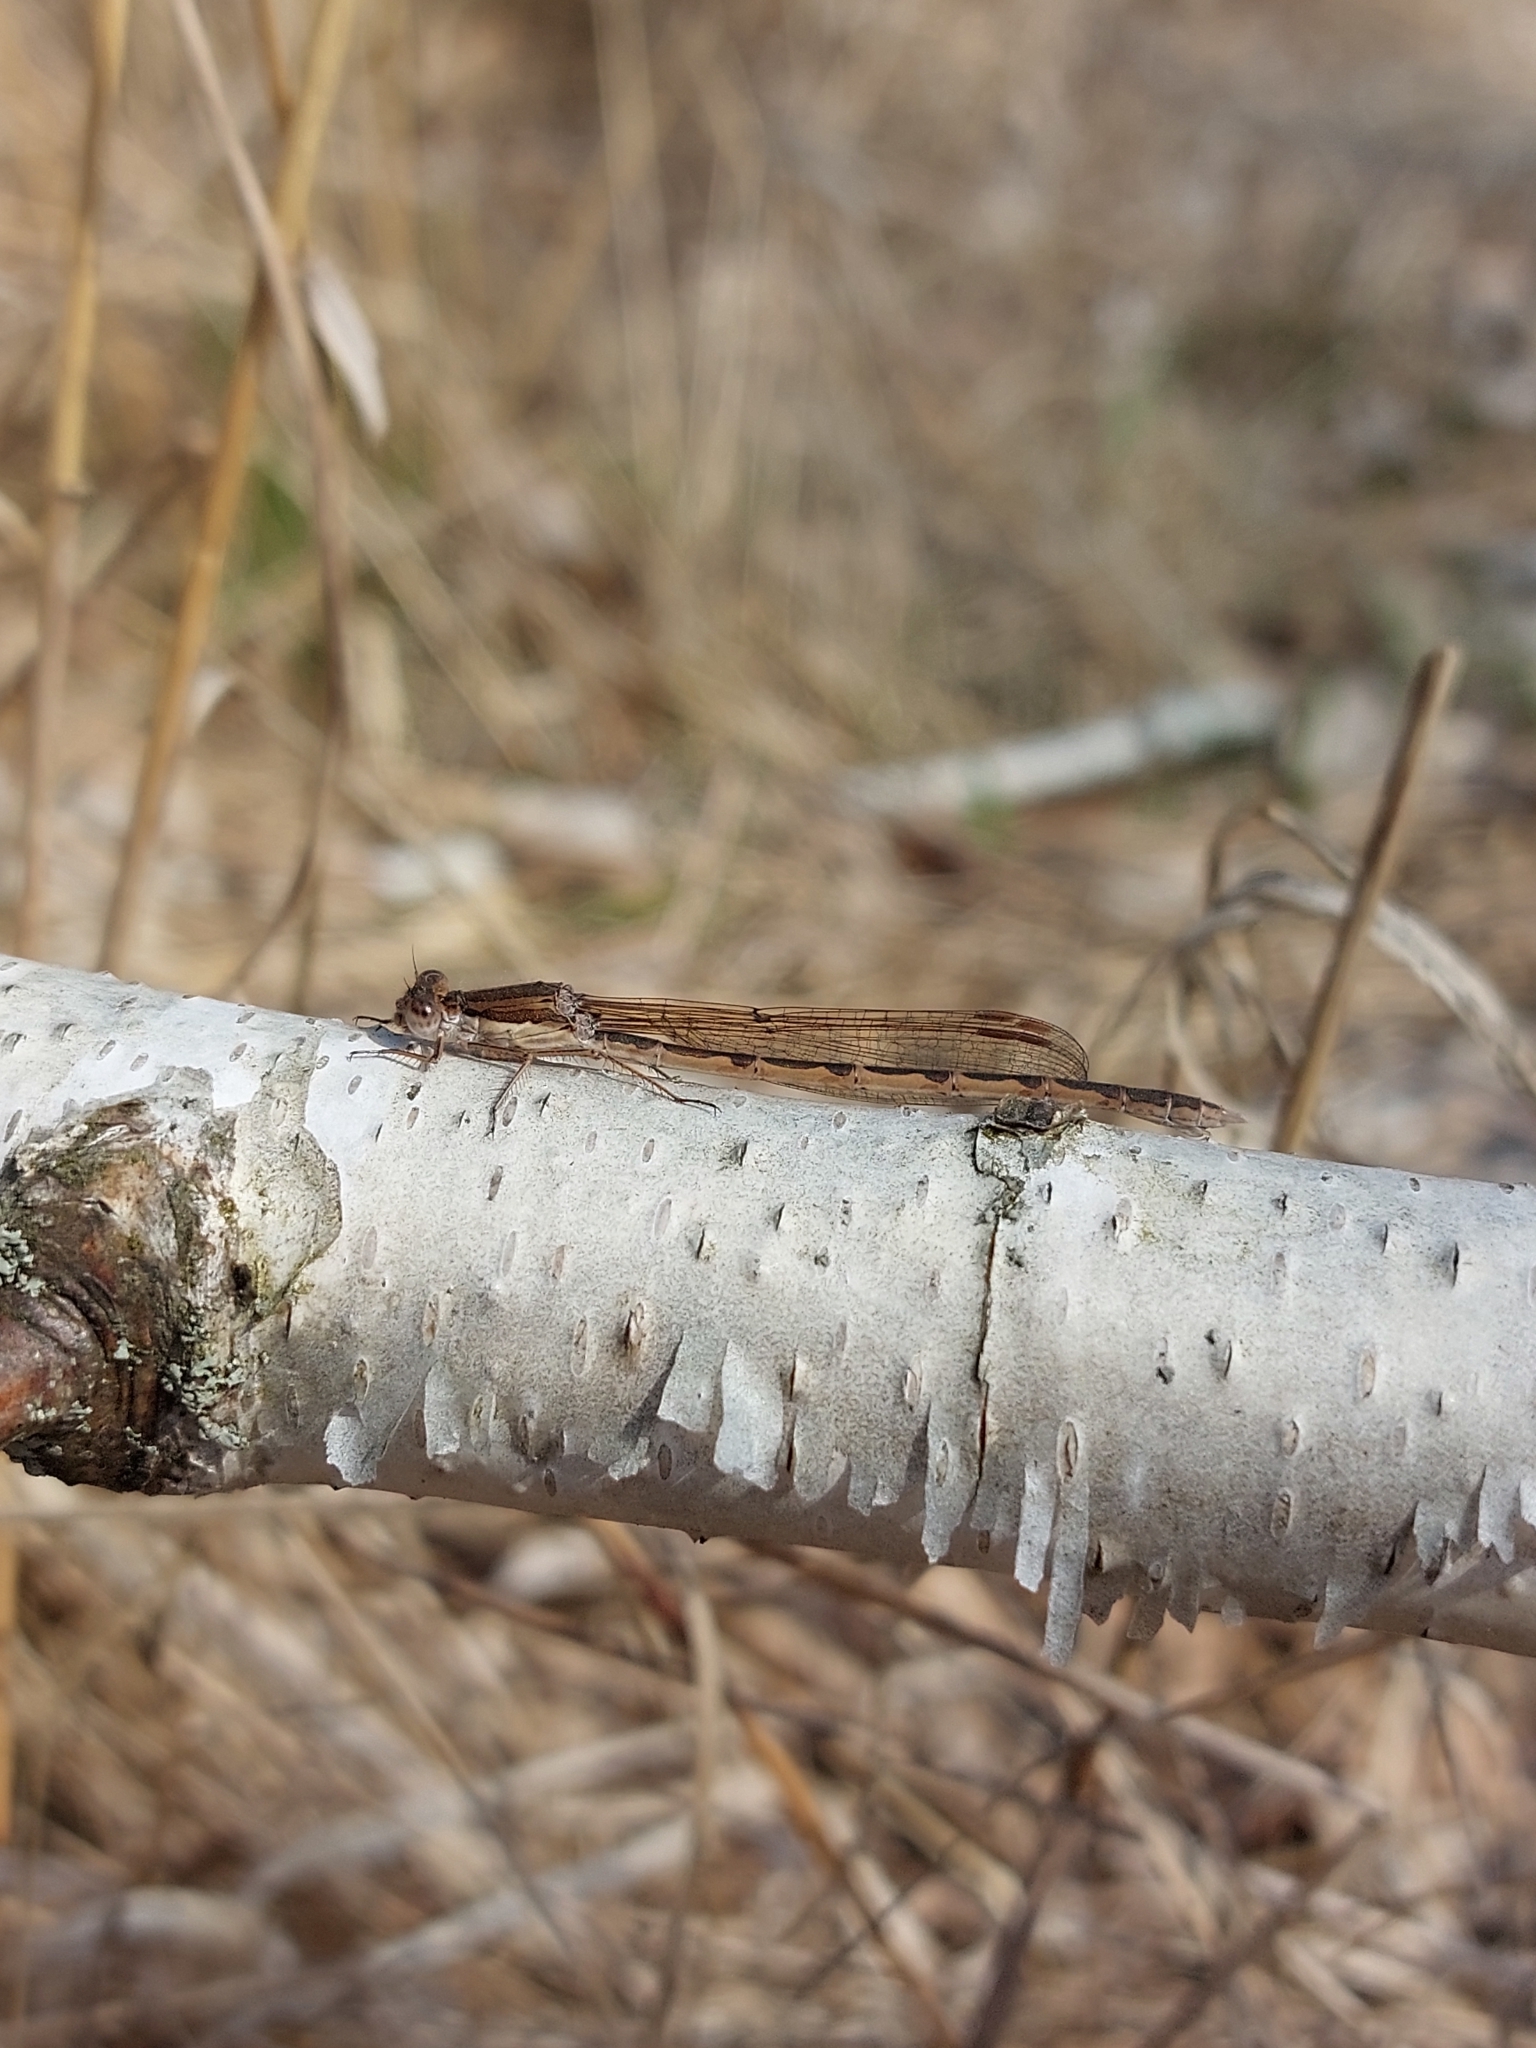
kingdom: Animalia
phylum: Arthropoda
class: Insecta
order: Odonata
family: Lestidae
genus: Sympecma
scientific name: Sympecma fusca
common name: Common winter damsel
